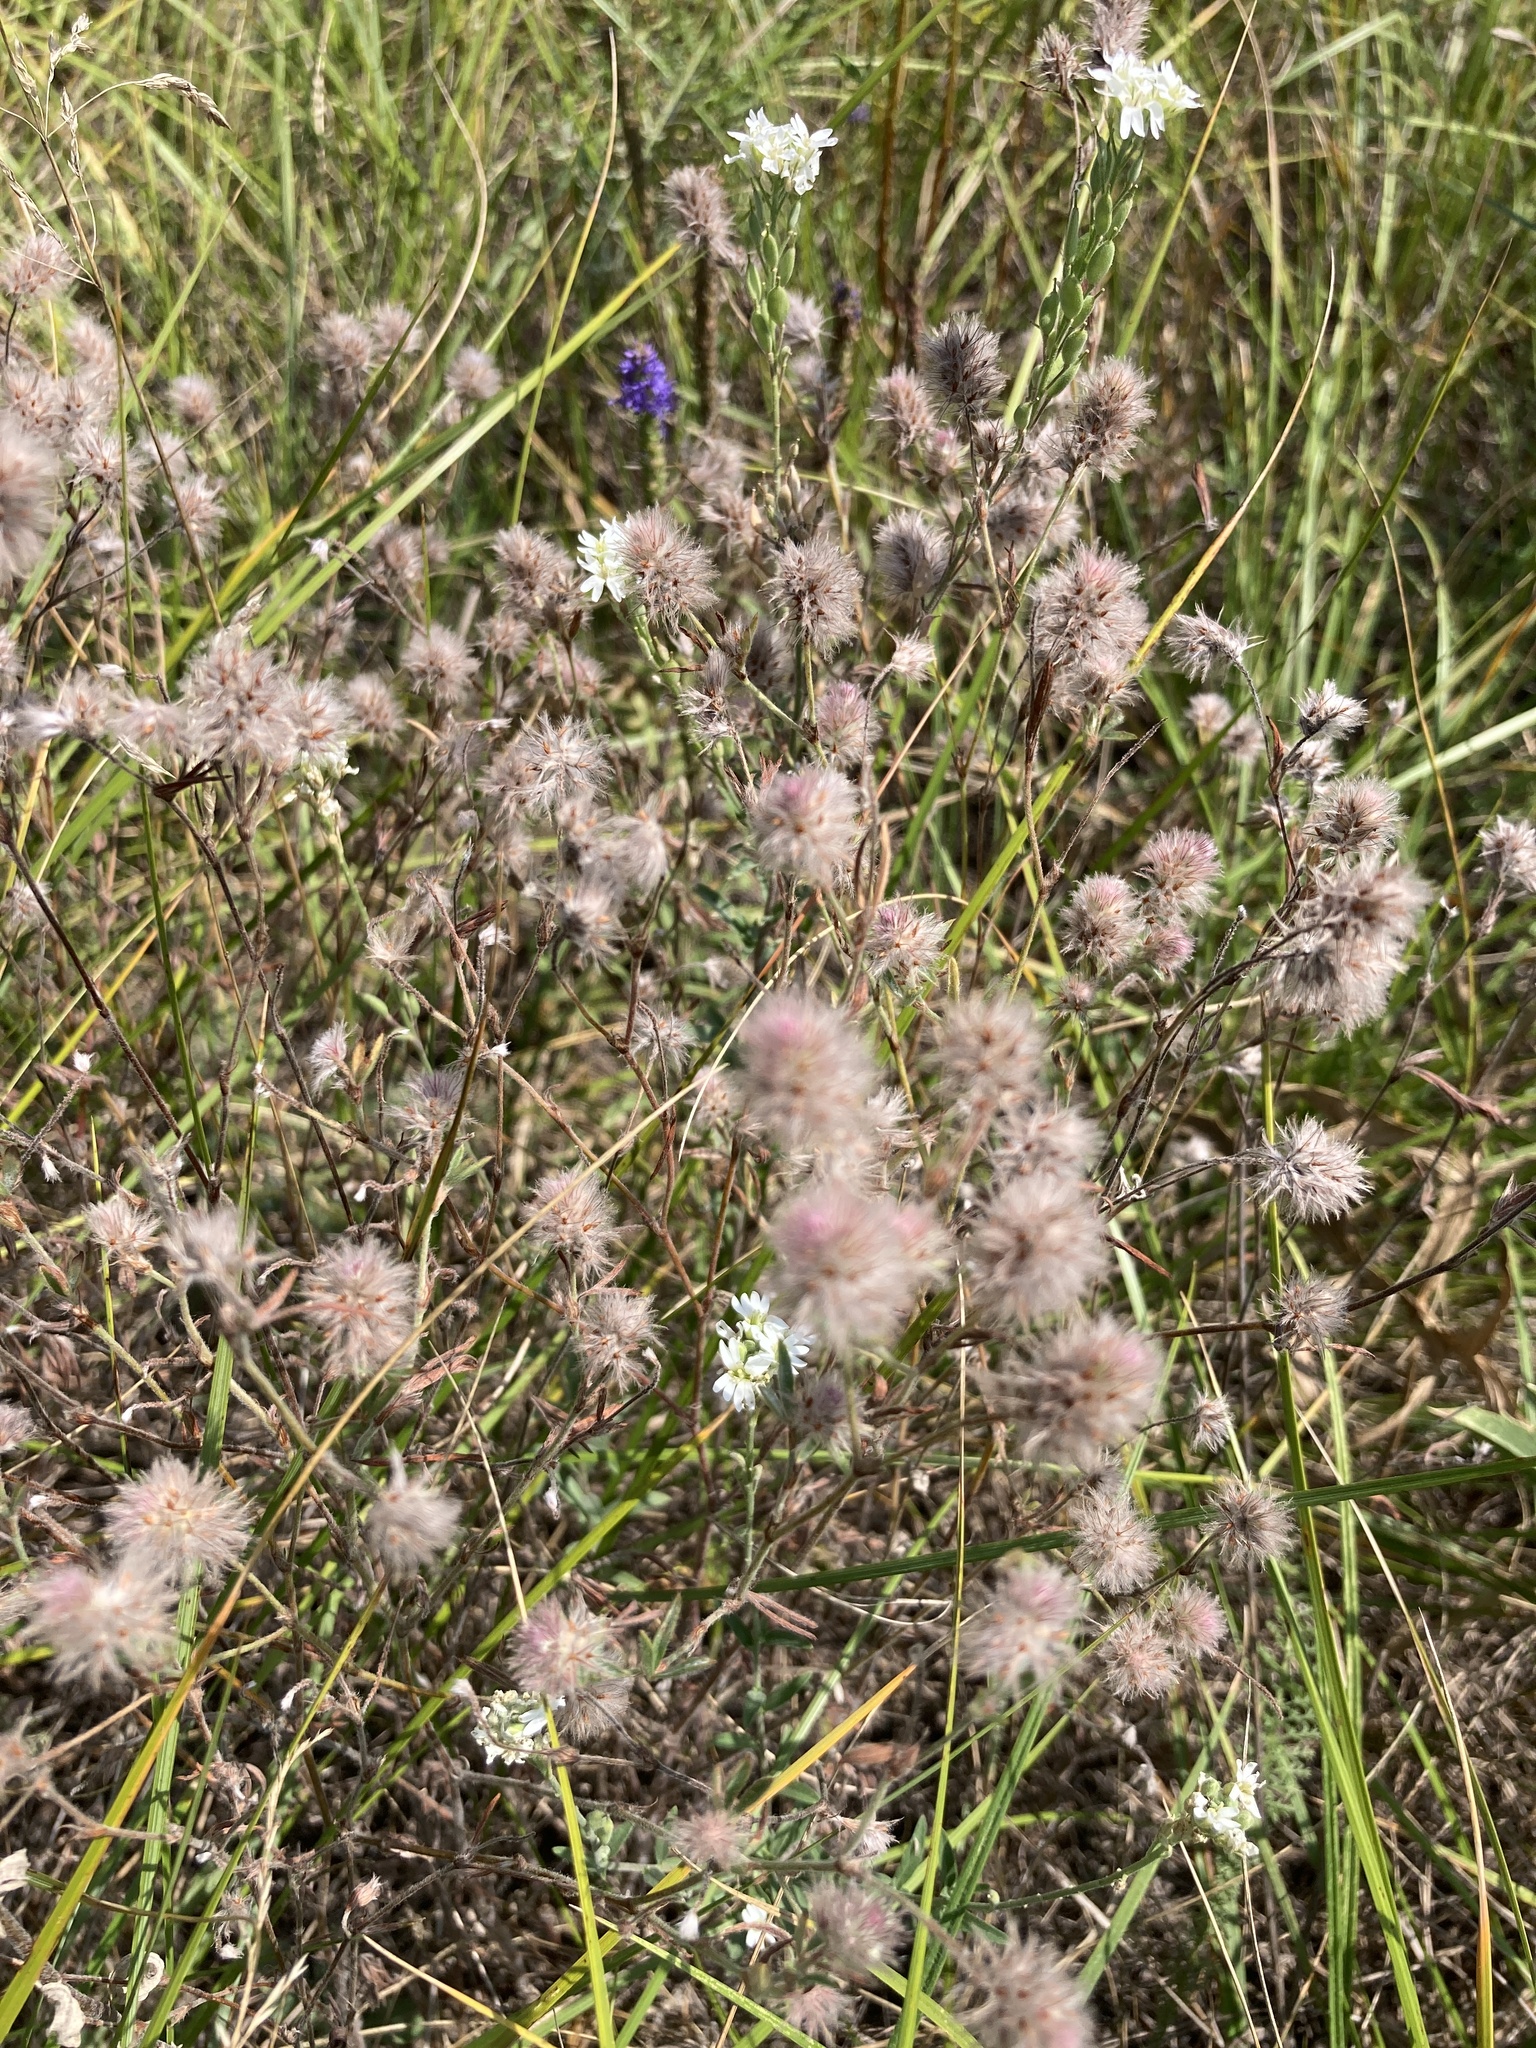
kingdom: Plantae
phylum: Tracheophyta
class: Magnoliopsida
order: Fabales
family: Fabaceae
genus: Trifolium
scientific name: Trifolium arvense
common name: Hare's-foot clover
